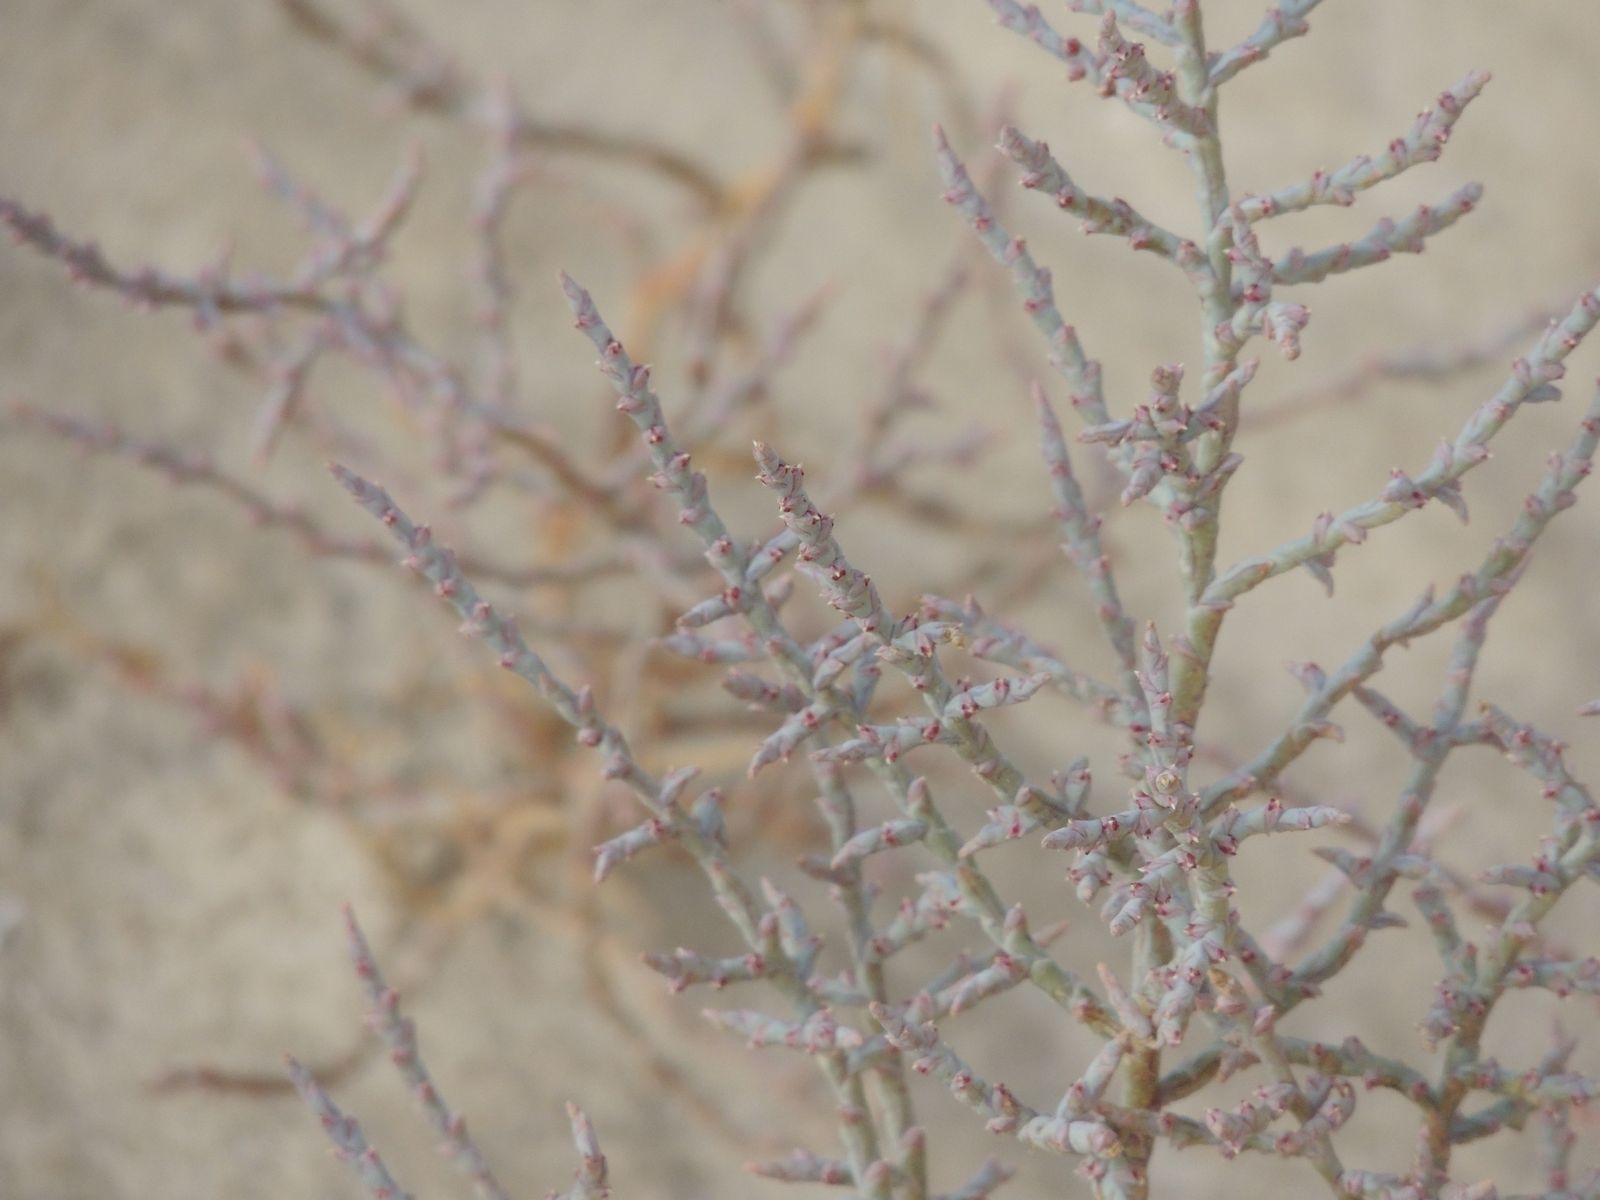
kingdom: Plantae
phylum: Tracheophyta
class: Magnoliopsida
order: Caryophyllales
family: Amaranthaceae
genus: Ofaiston
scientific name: Ofaiston monandrum
